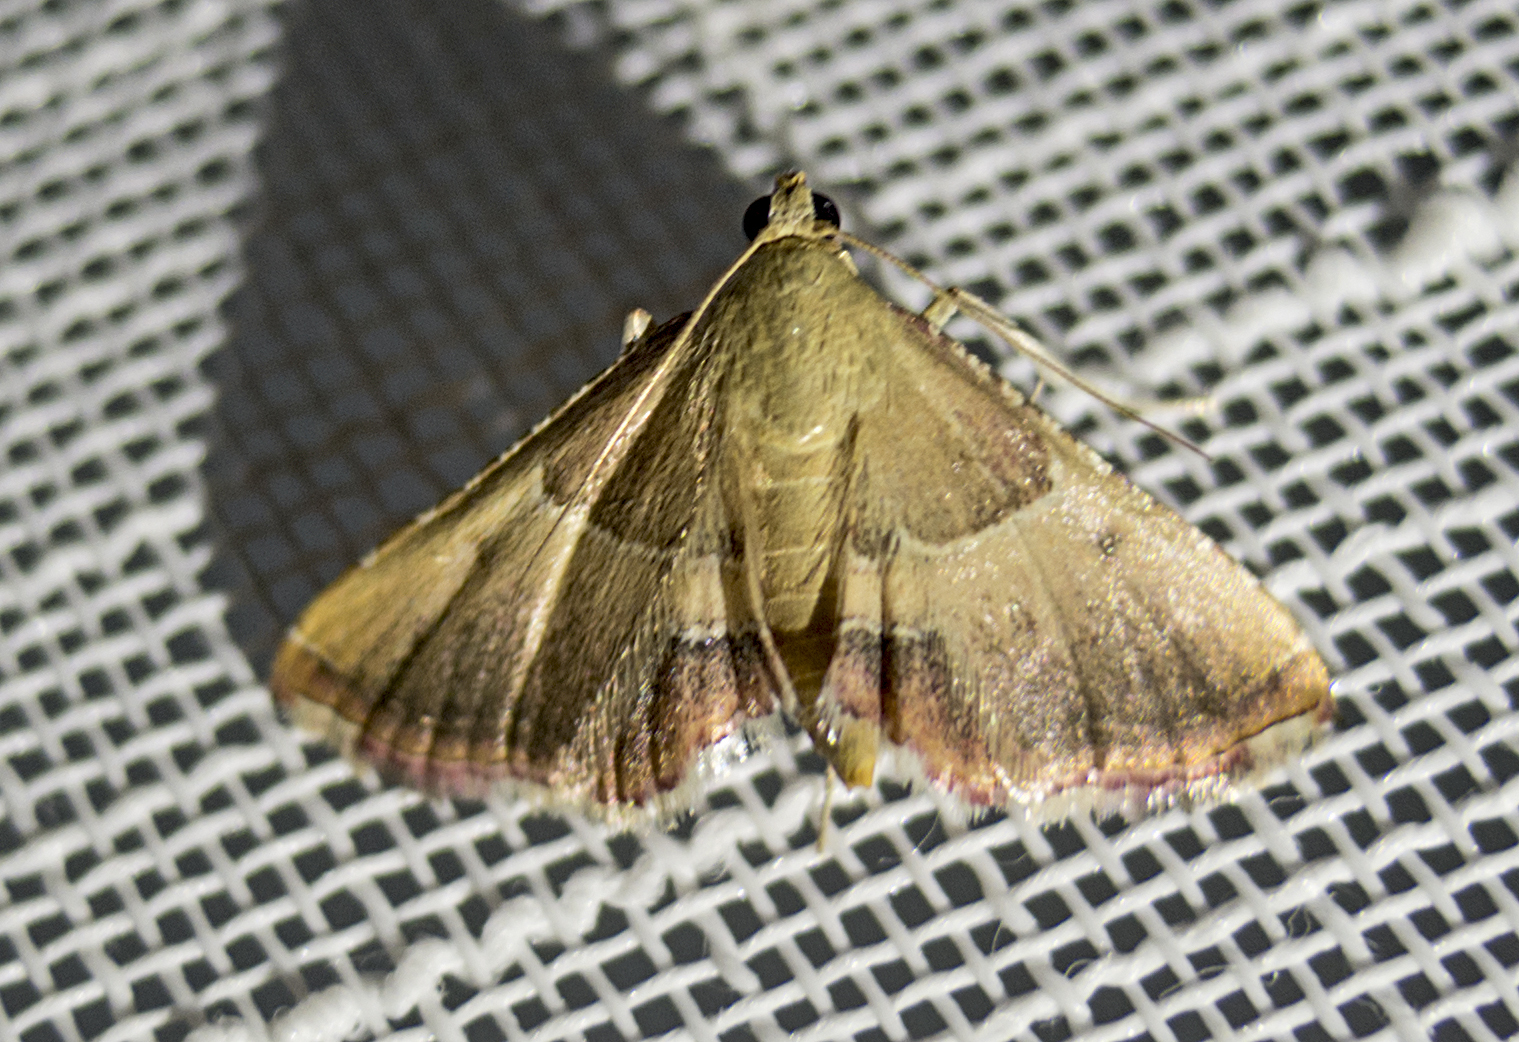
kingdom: Animalia
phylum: Arthropoda
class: Insecta
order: Lepidoptera
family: Pyralidae
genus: Endotricha
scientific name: Endotricha flammealis
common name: Rosy tabby
